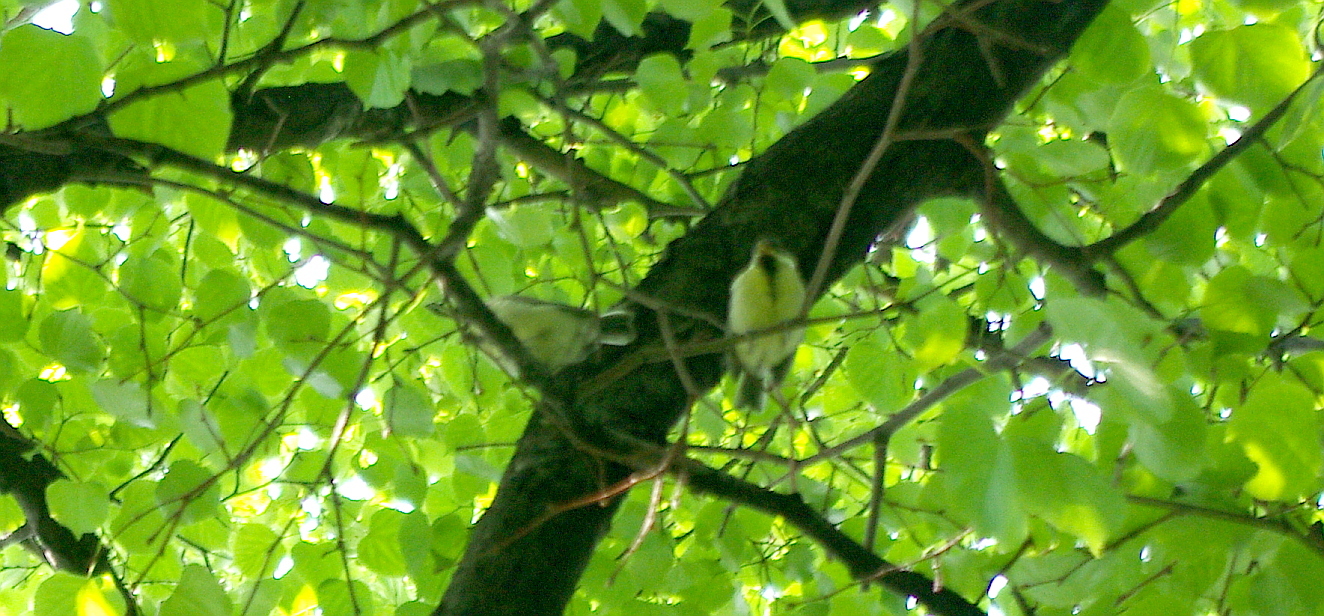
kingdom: Animalia
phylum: Chordata
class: Aves
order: Passeriformes
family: Paridae
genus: Parus
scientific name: Parus major
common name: Great tit
